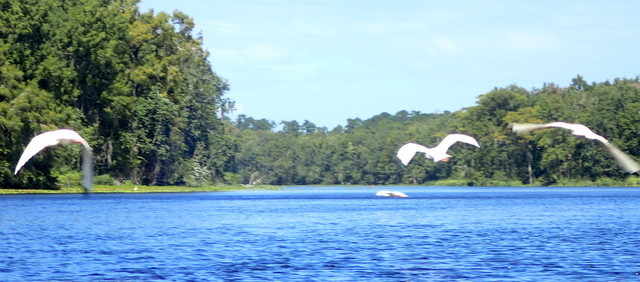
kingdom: Animalia
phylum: Chordata
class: Aves
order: Pelecaniformes
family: Threskiornithidae
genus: Eudocimus
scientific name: Eudocimus albus
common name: White ibis
